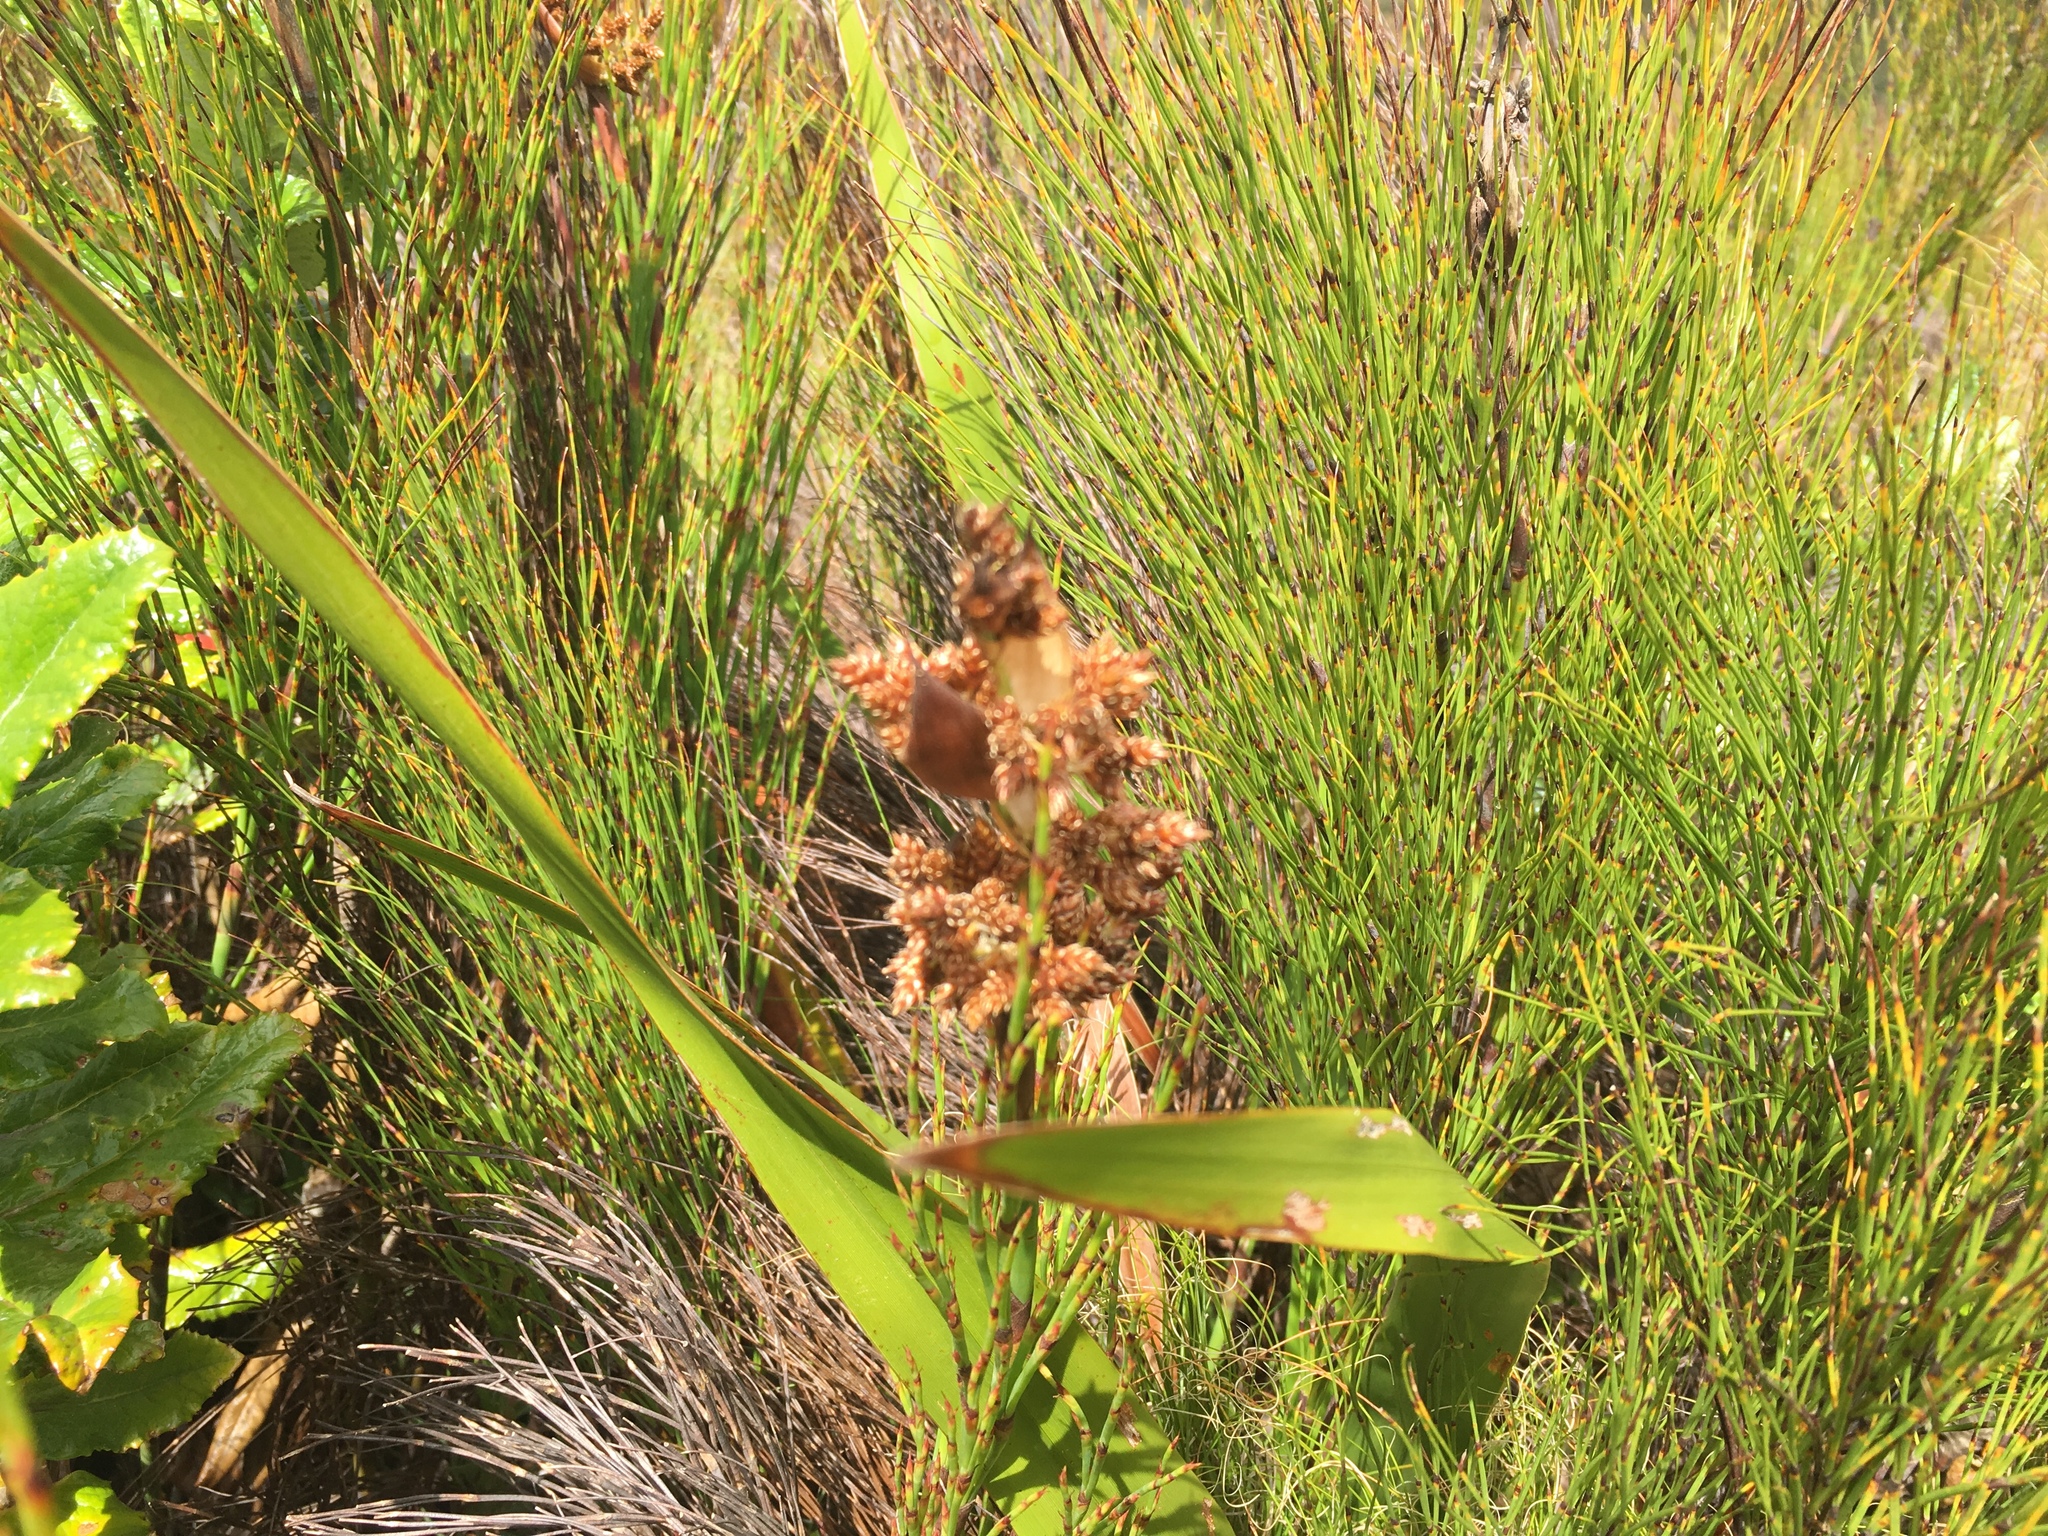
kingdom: Plantae
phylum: Tracheophyta
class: Liliopsida
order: Poales
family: Restionaceae
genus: Cannomois
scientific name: Cannomois virgata
